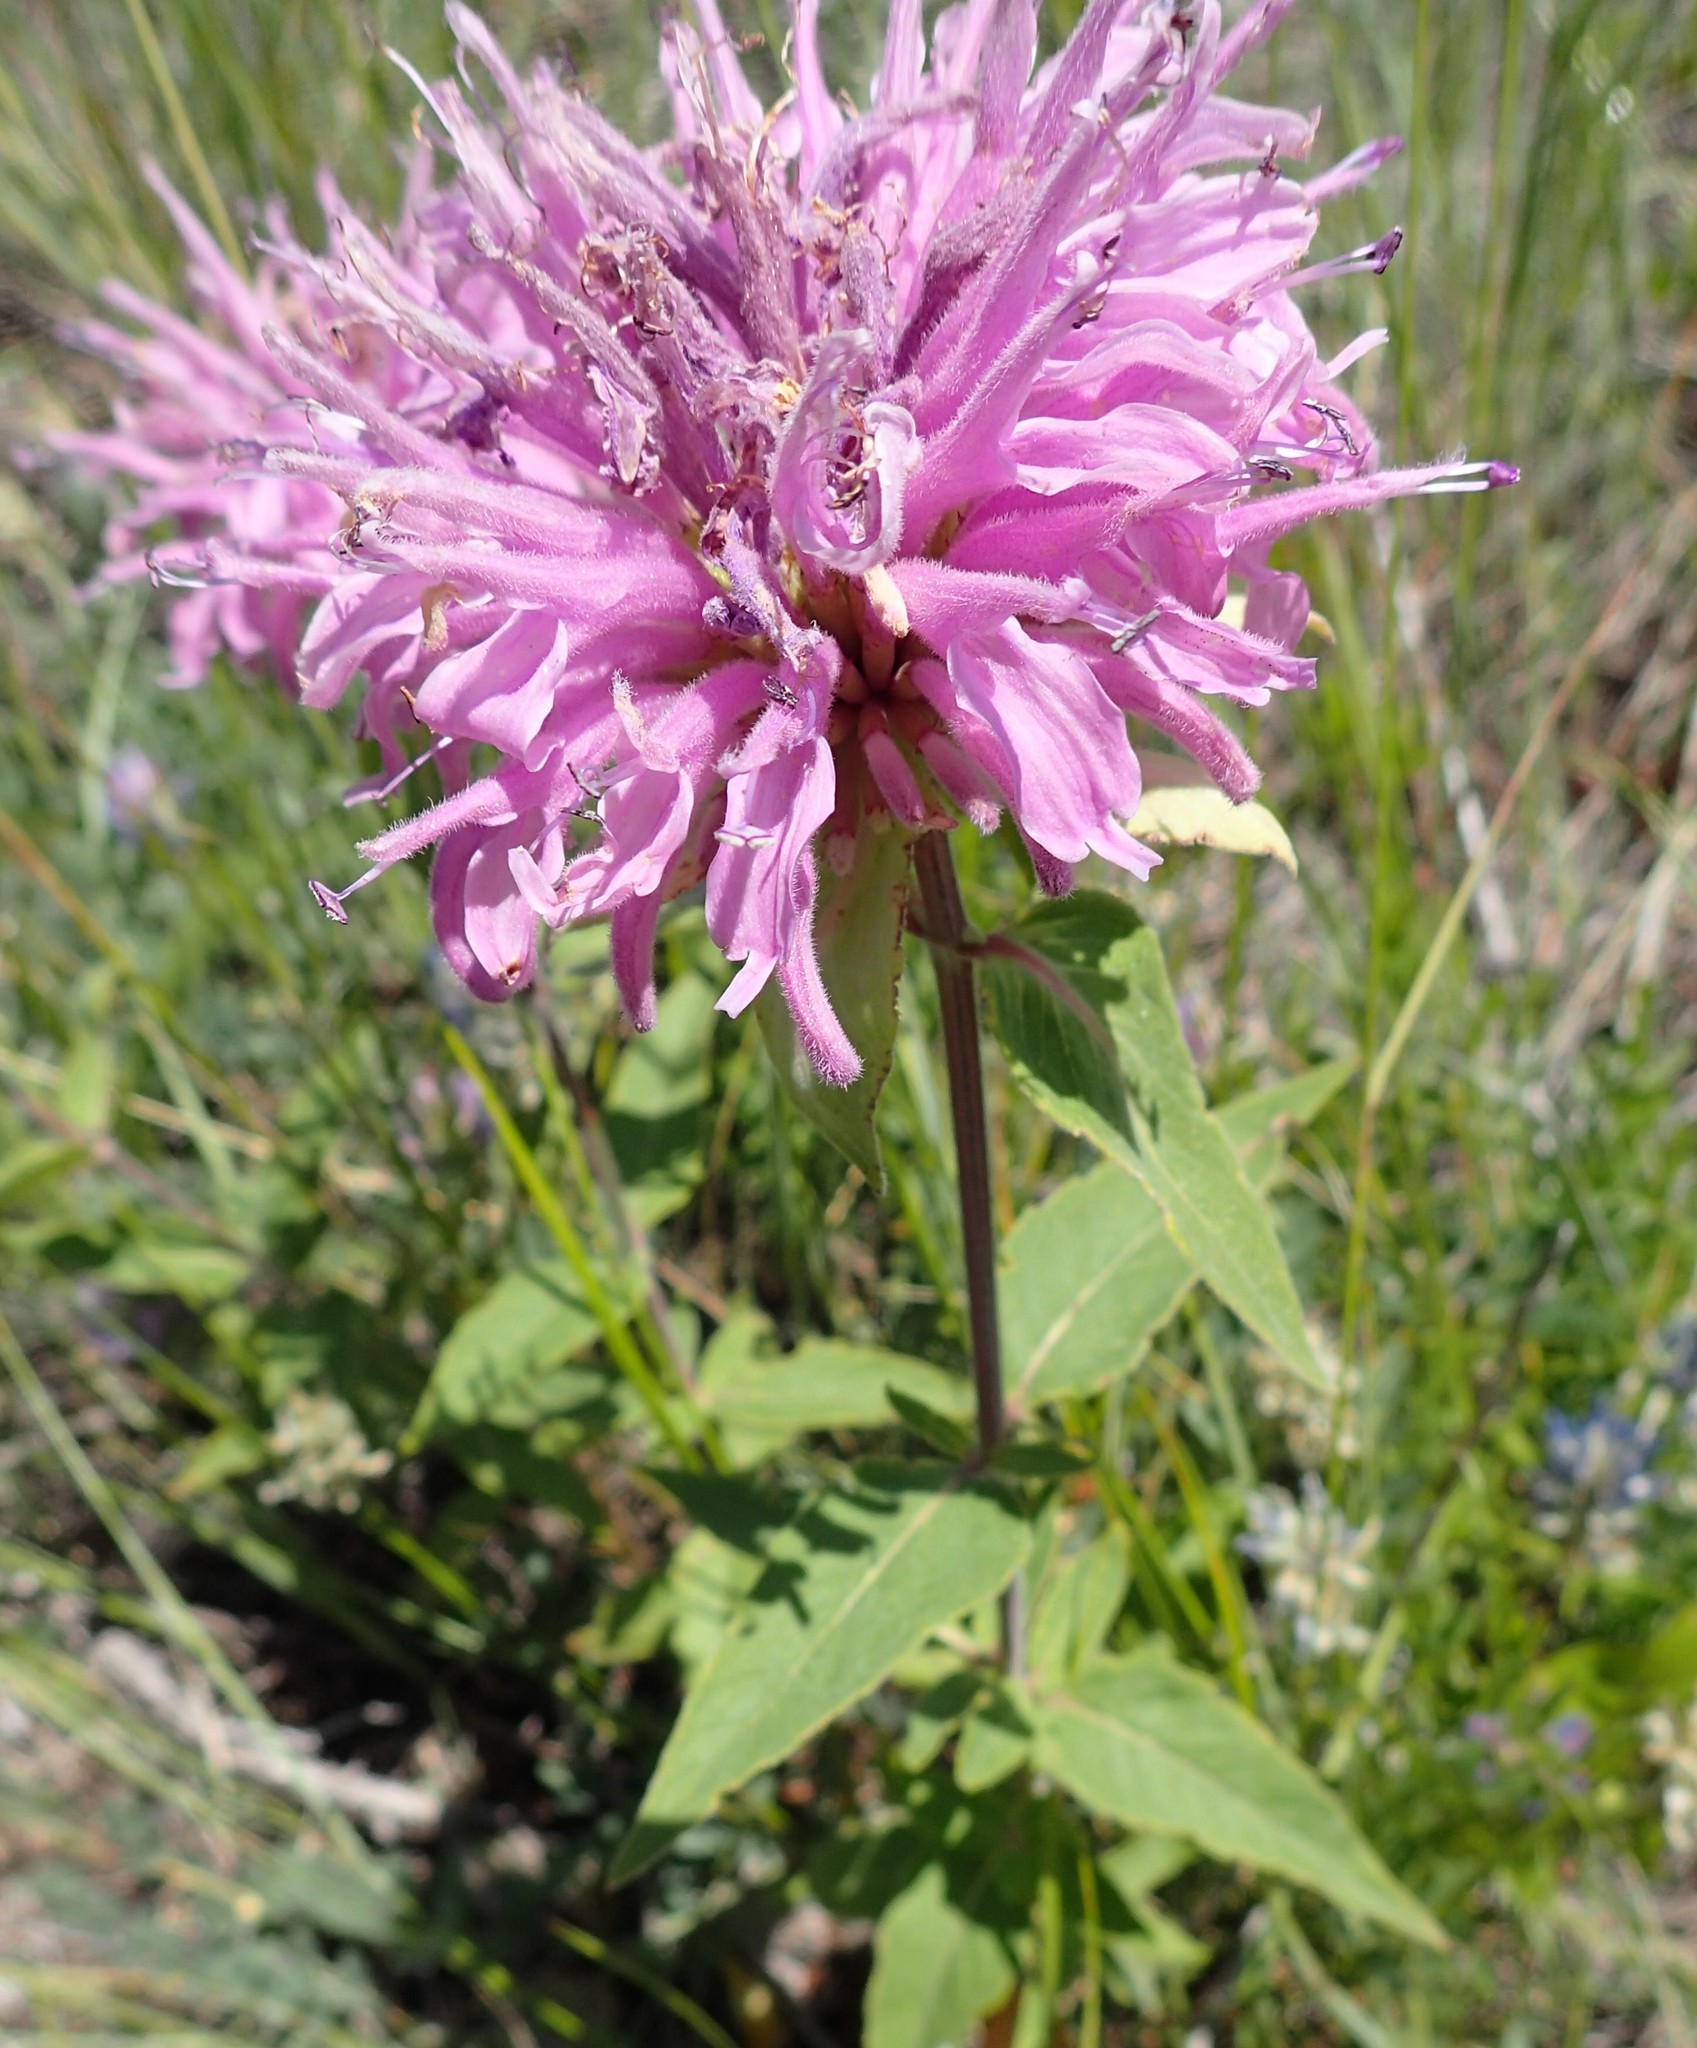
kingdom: Plantae
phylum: Tracheophyta
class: Magnoliopsida
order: Lamiales
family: Lamiaceae
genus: Monarda
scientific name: Monarda fistulosa
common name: Purple beebalm
